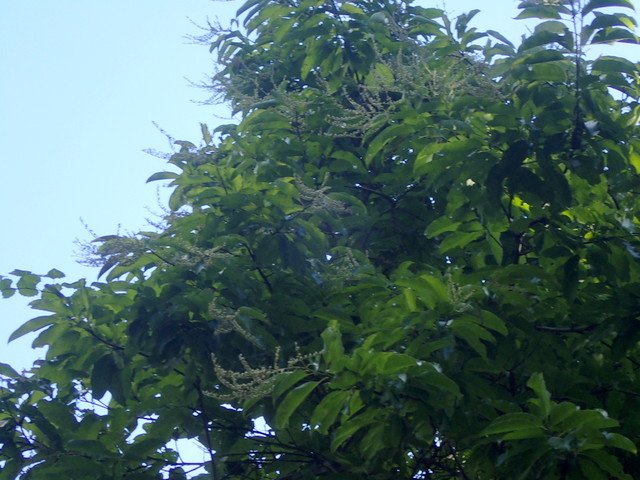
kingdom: Plantae
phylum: Tracheophyta
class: Magnoliopsida
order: Ericales
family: Ericaceae
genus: Oxydendrum
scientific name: Oxydendrum arboreum
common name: Sourwood
